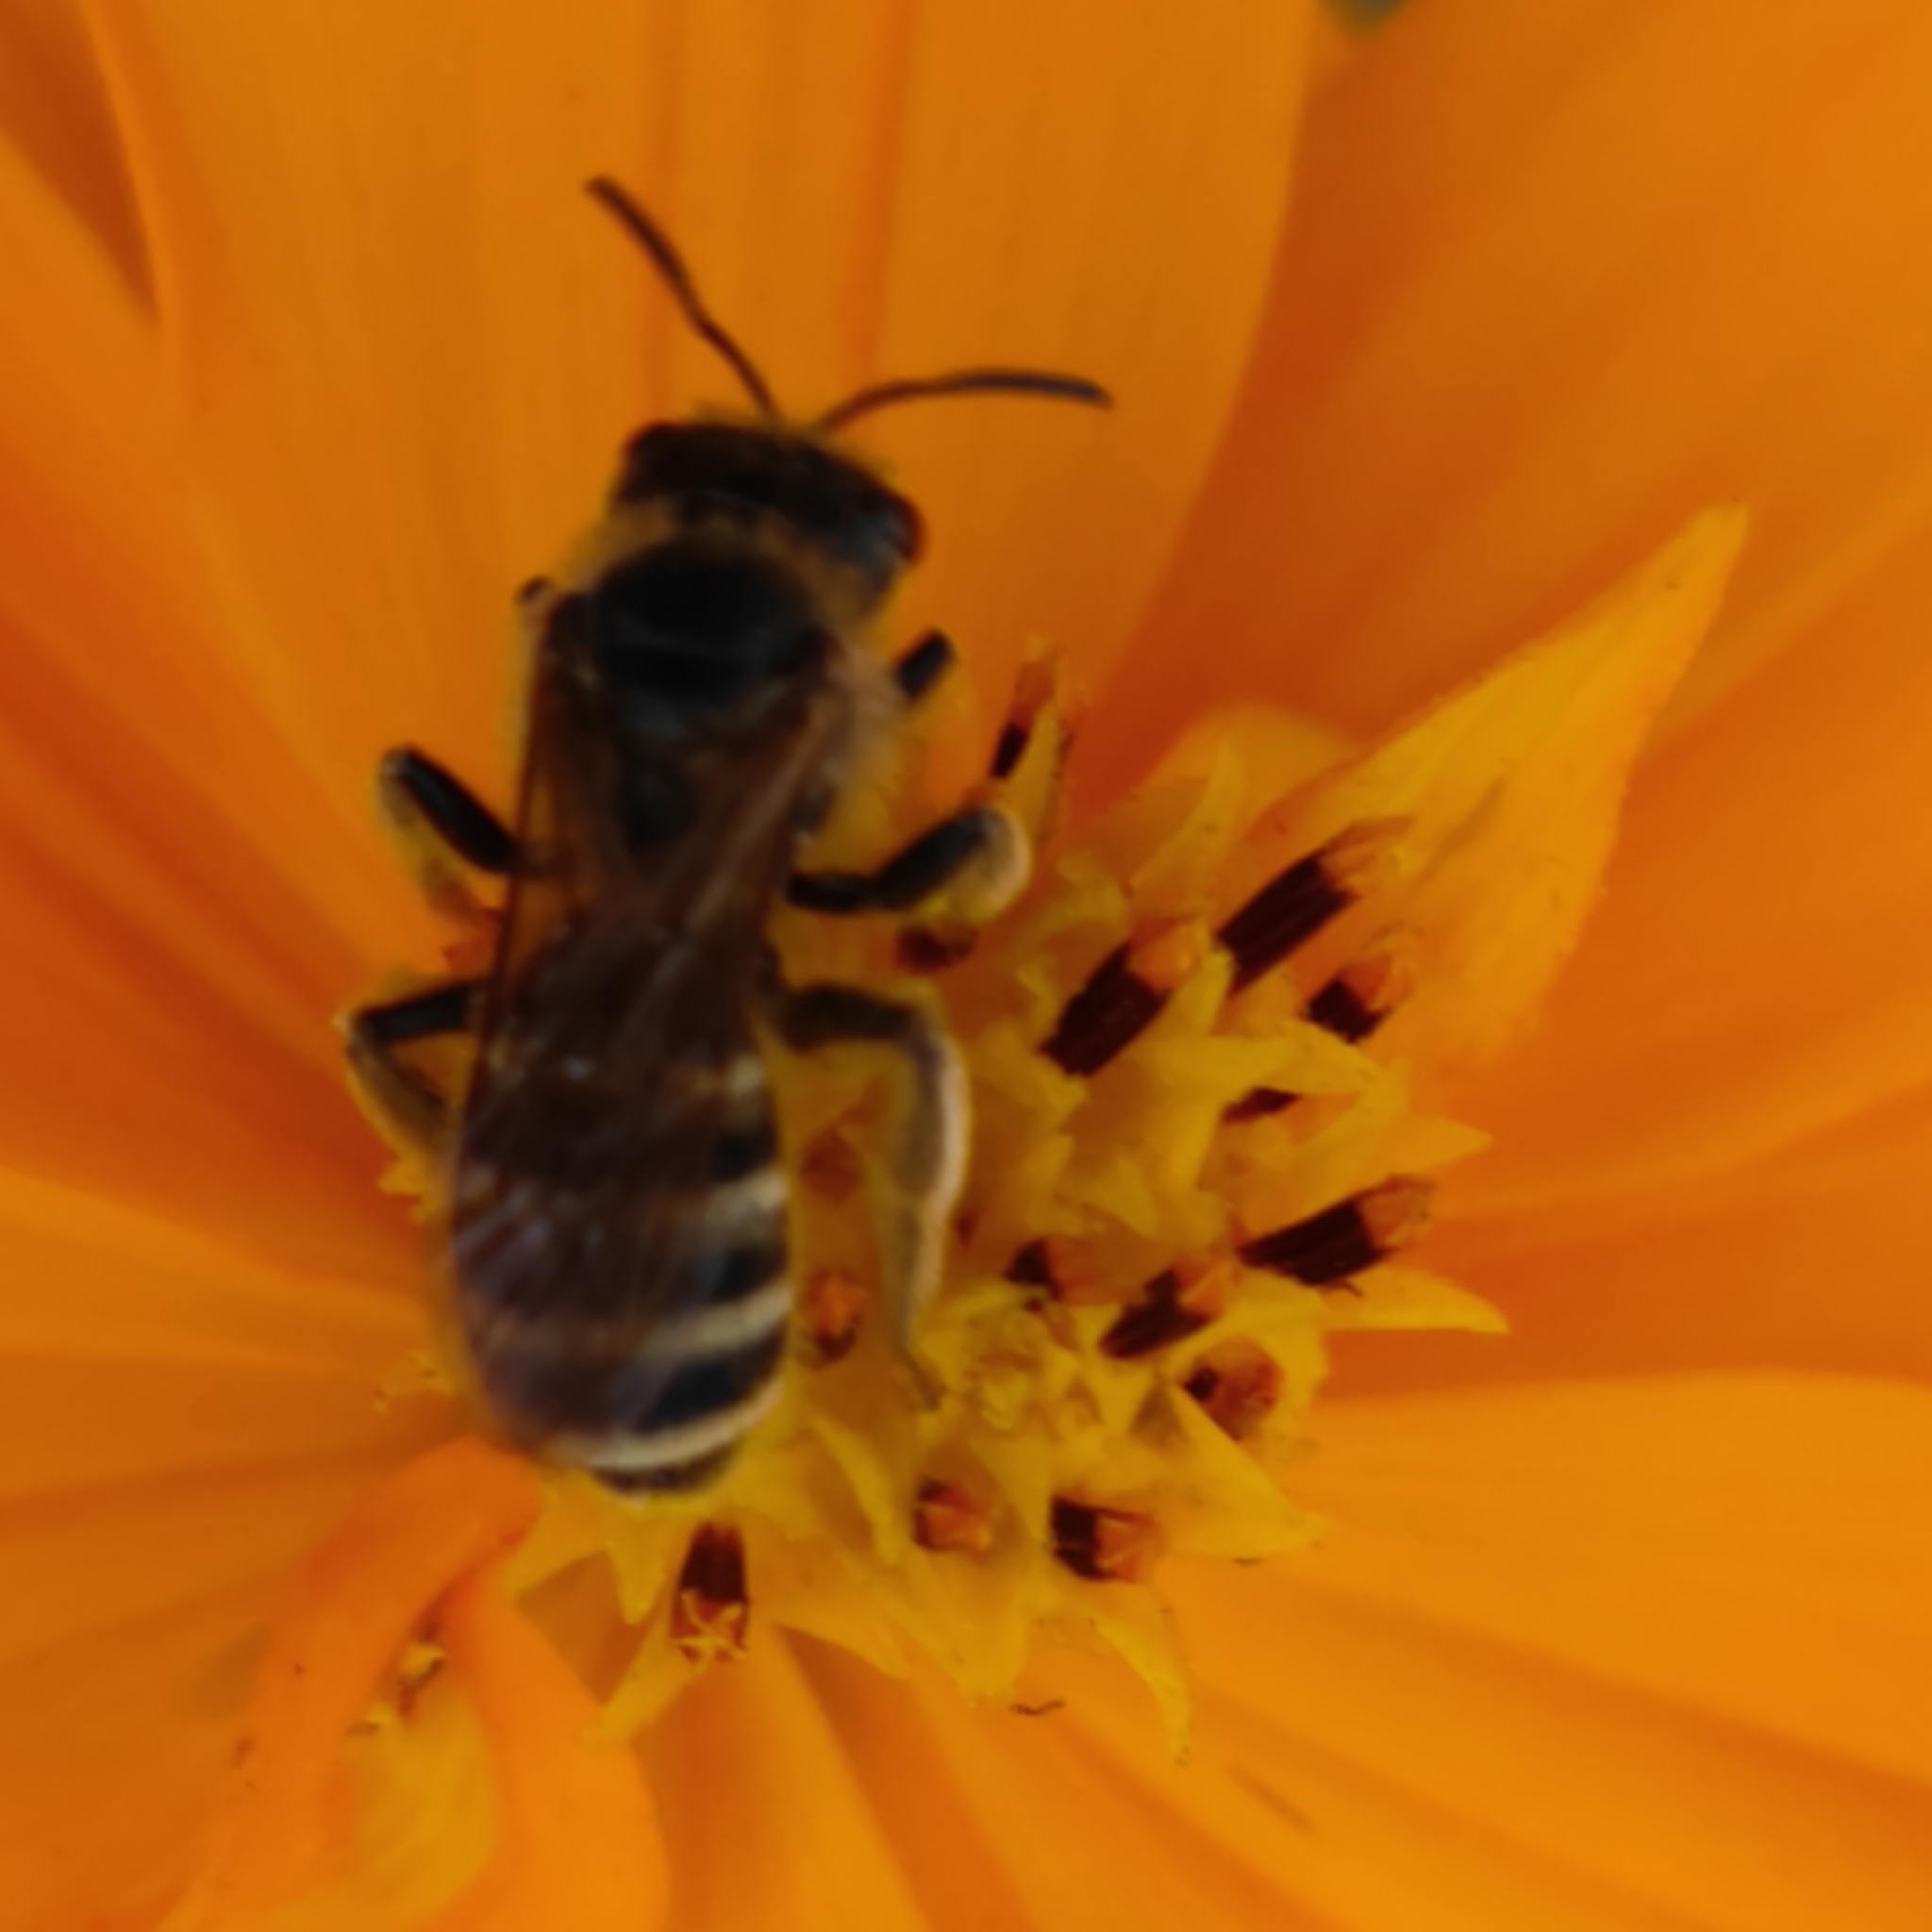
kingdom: Animalia
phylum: Arthropoda
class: Insecta
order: Hymenoptera
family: Halictidae
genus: Halictus
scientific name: Halictus scabiosae
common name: Great banded furrow bee
